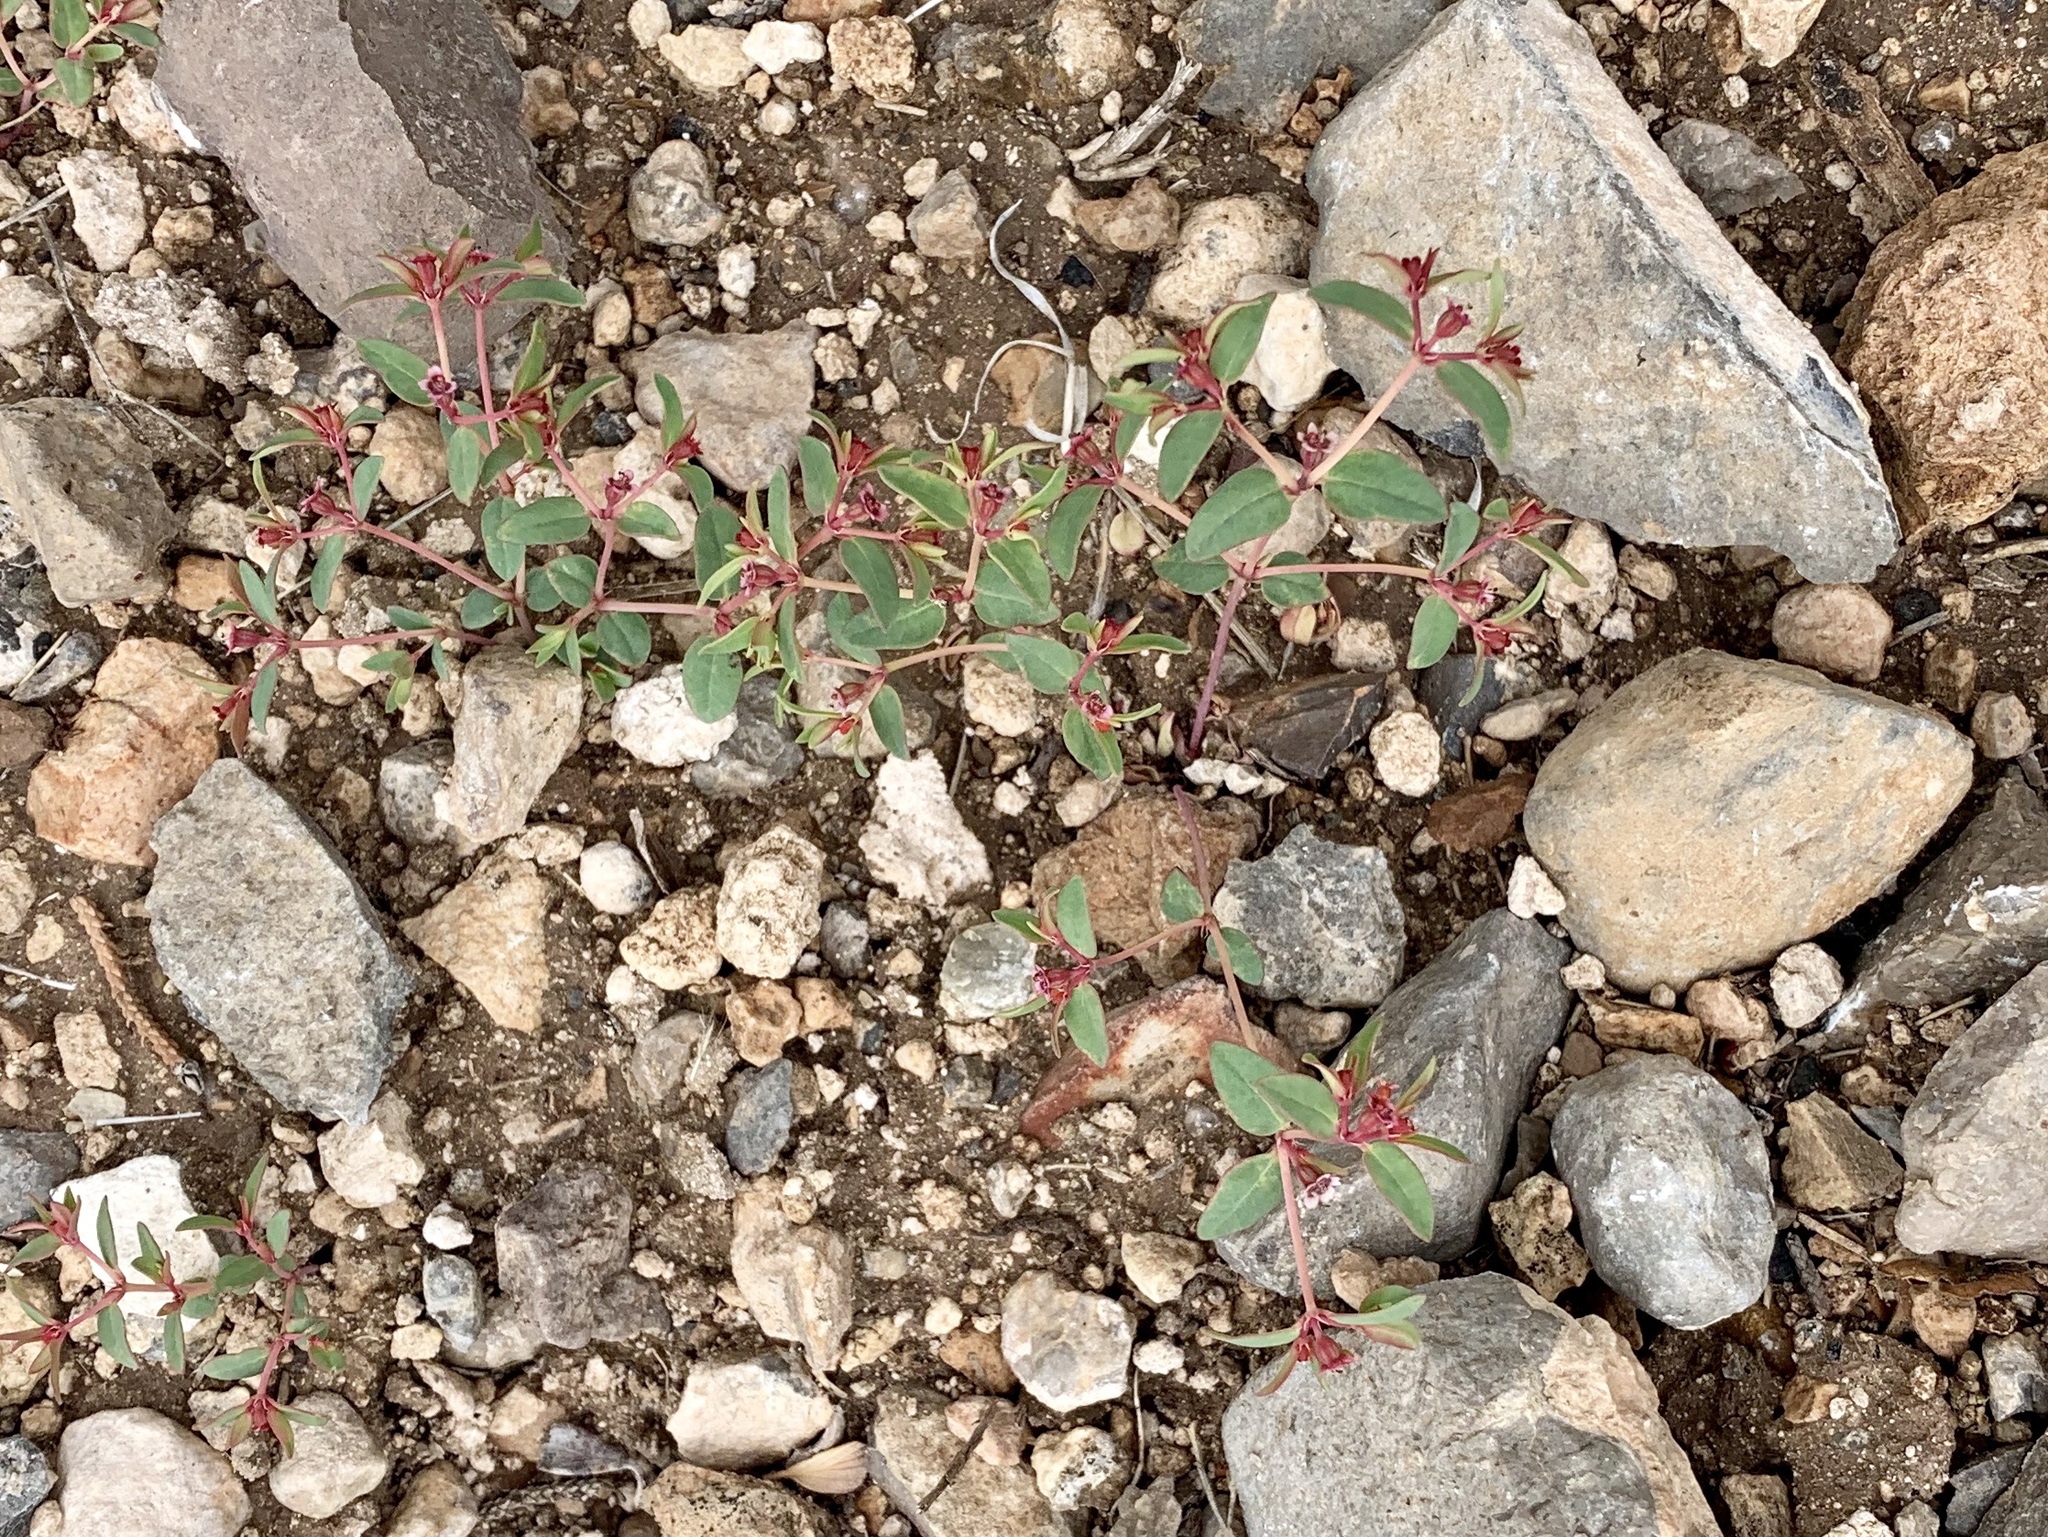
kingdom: Plantae
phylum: Tracheophyta
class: Magnoliopsida
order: Malpighiales
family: Euphorbiaceae
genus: Euphorbia
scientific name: Euphorbia fendleri
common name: Fendler's euphorbia
